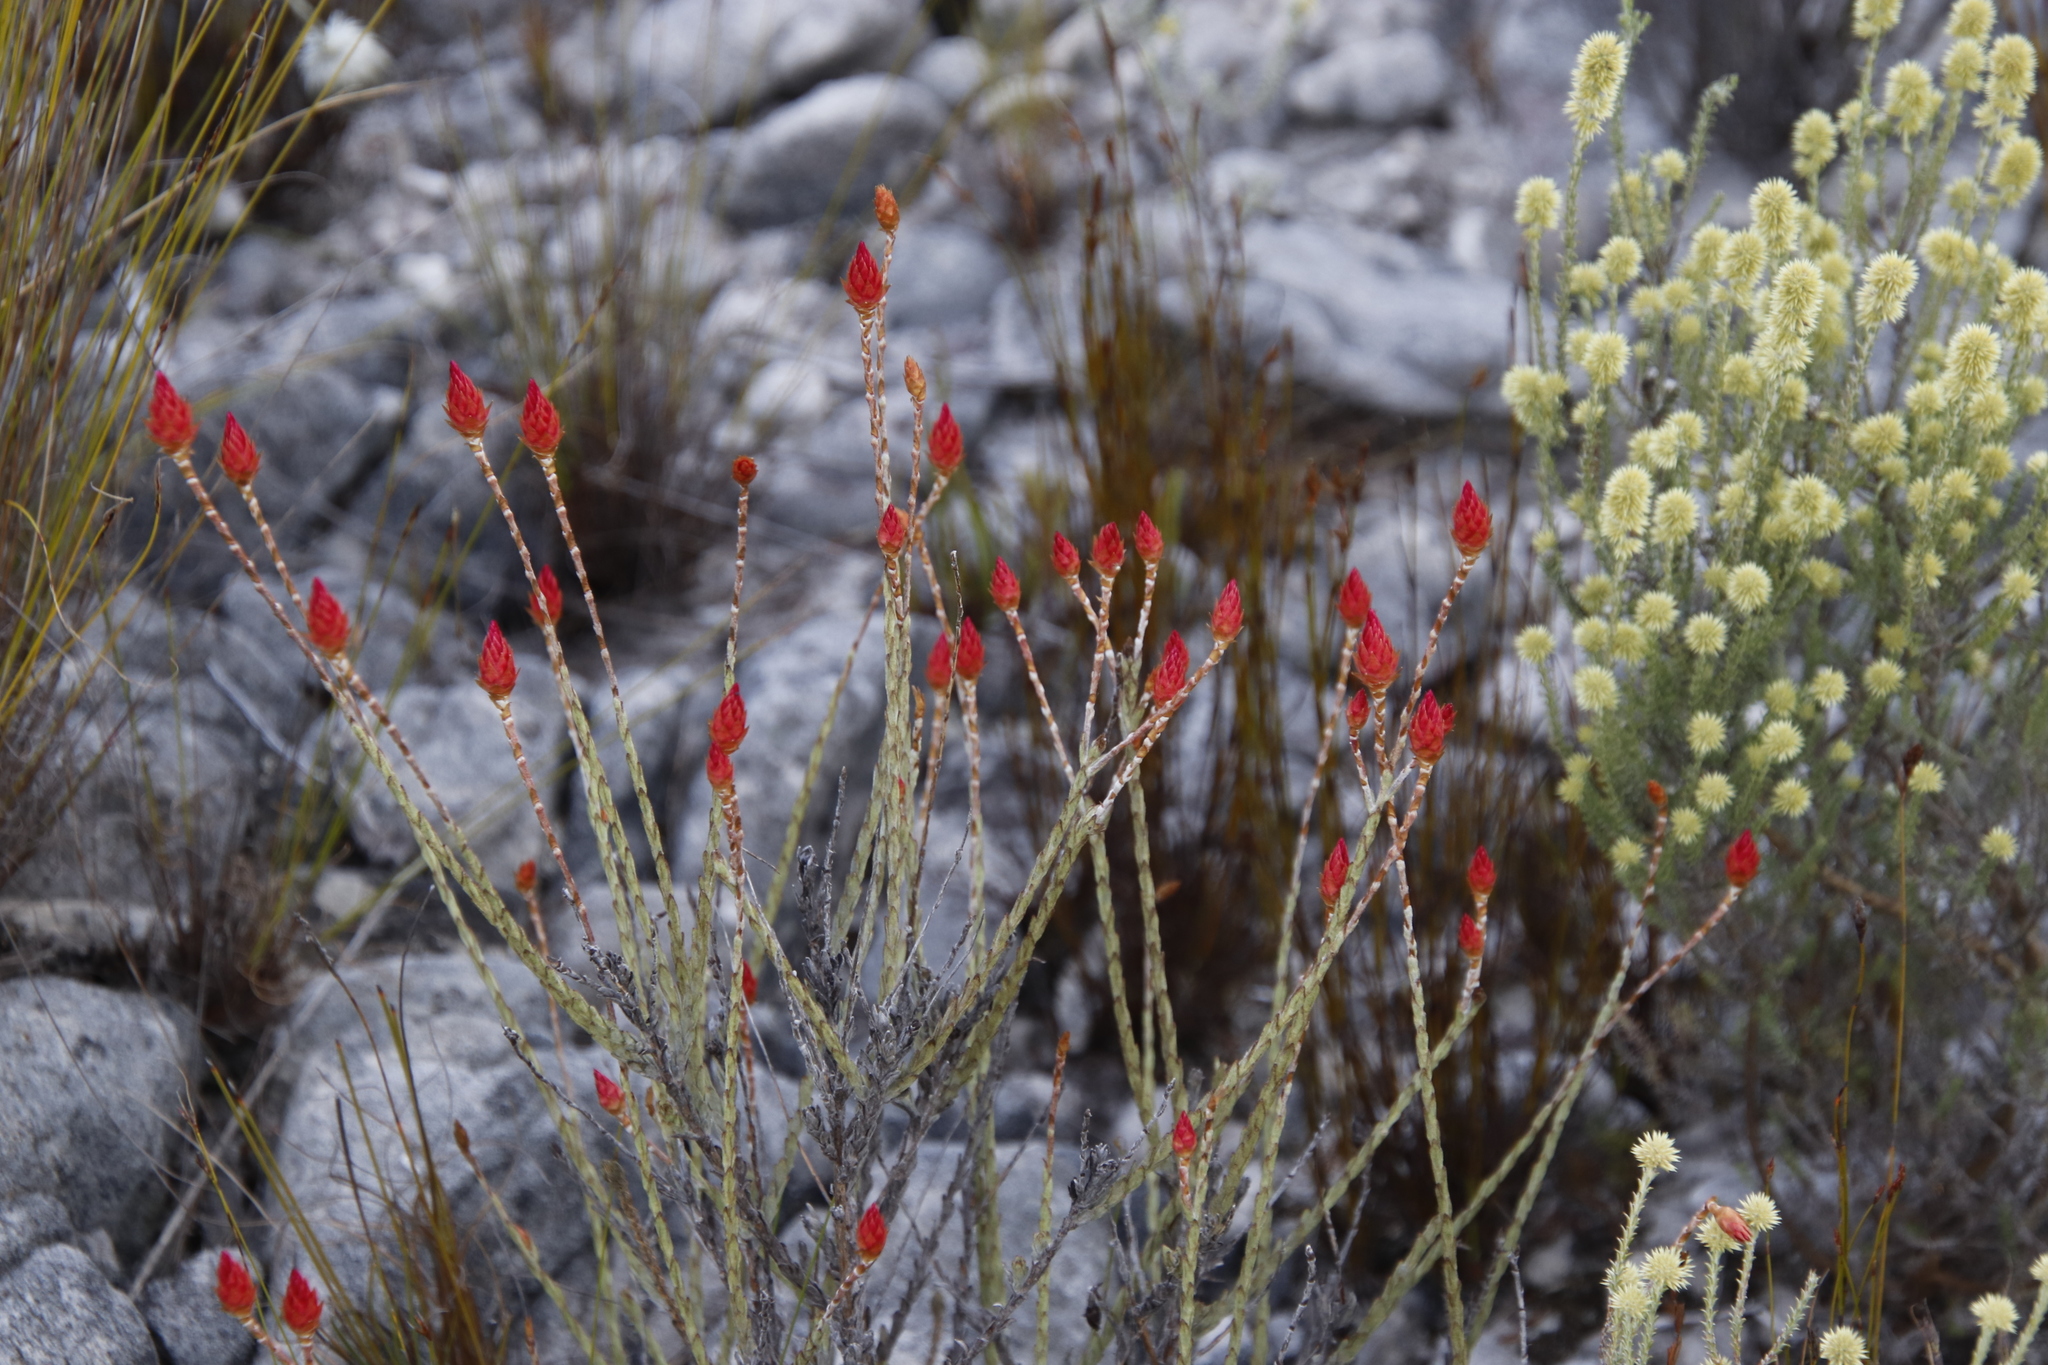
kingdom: Plantae
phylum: Tracheophyta
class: Magnoliopsida
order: Asterales
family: Asteraceae
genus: Syncarpha
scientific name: Syncarpha canescens
